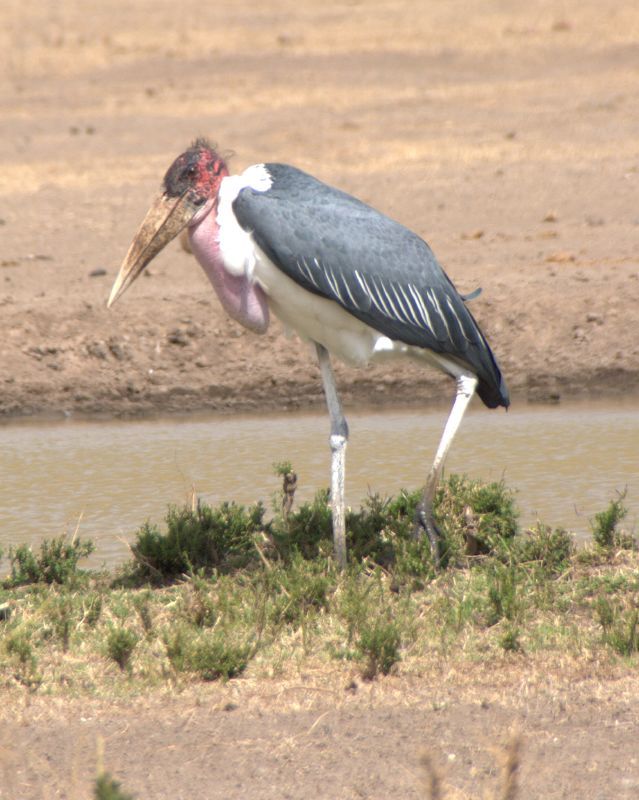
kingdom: Animalia
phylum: Chordata
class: Aves
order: Ciconiiformes
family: Ciconiidae
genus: Leptoptilos
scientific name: Leptoptilos crumenifer
